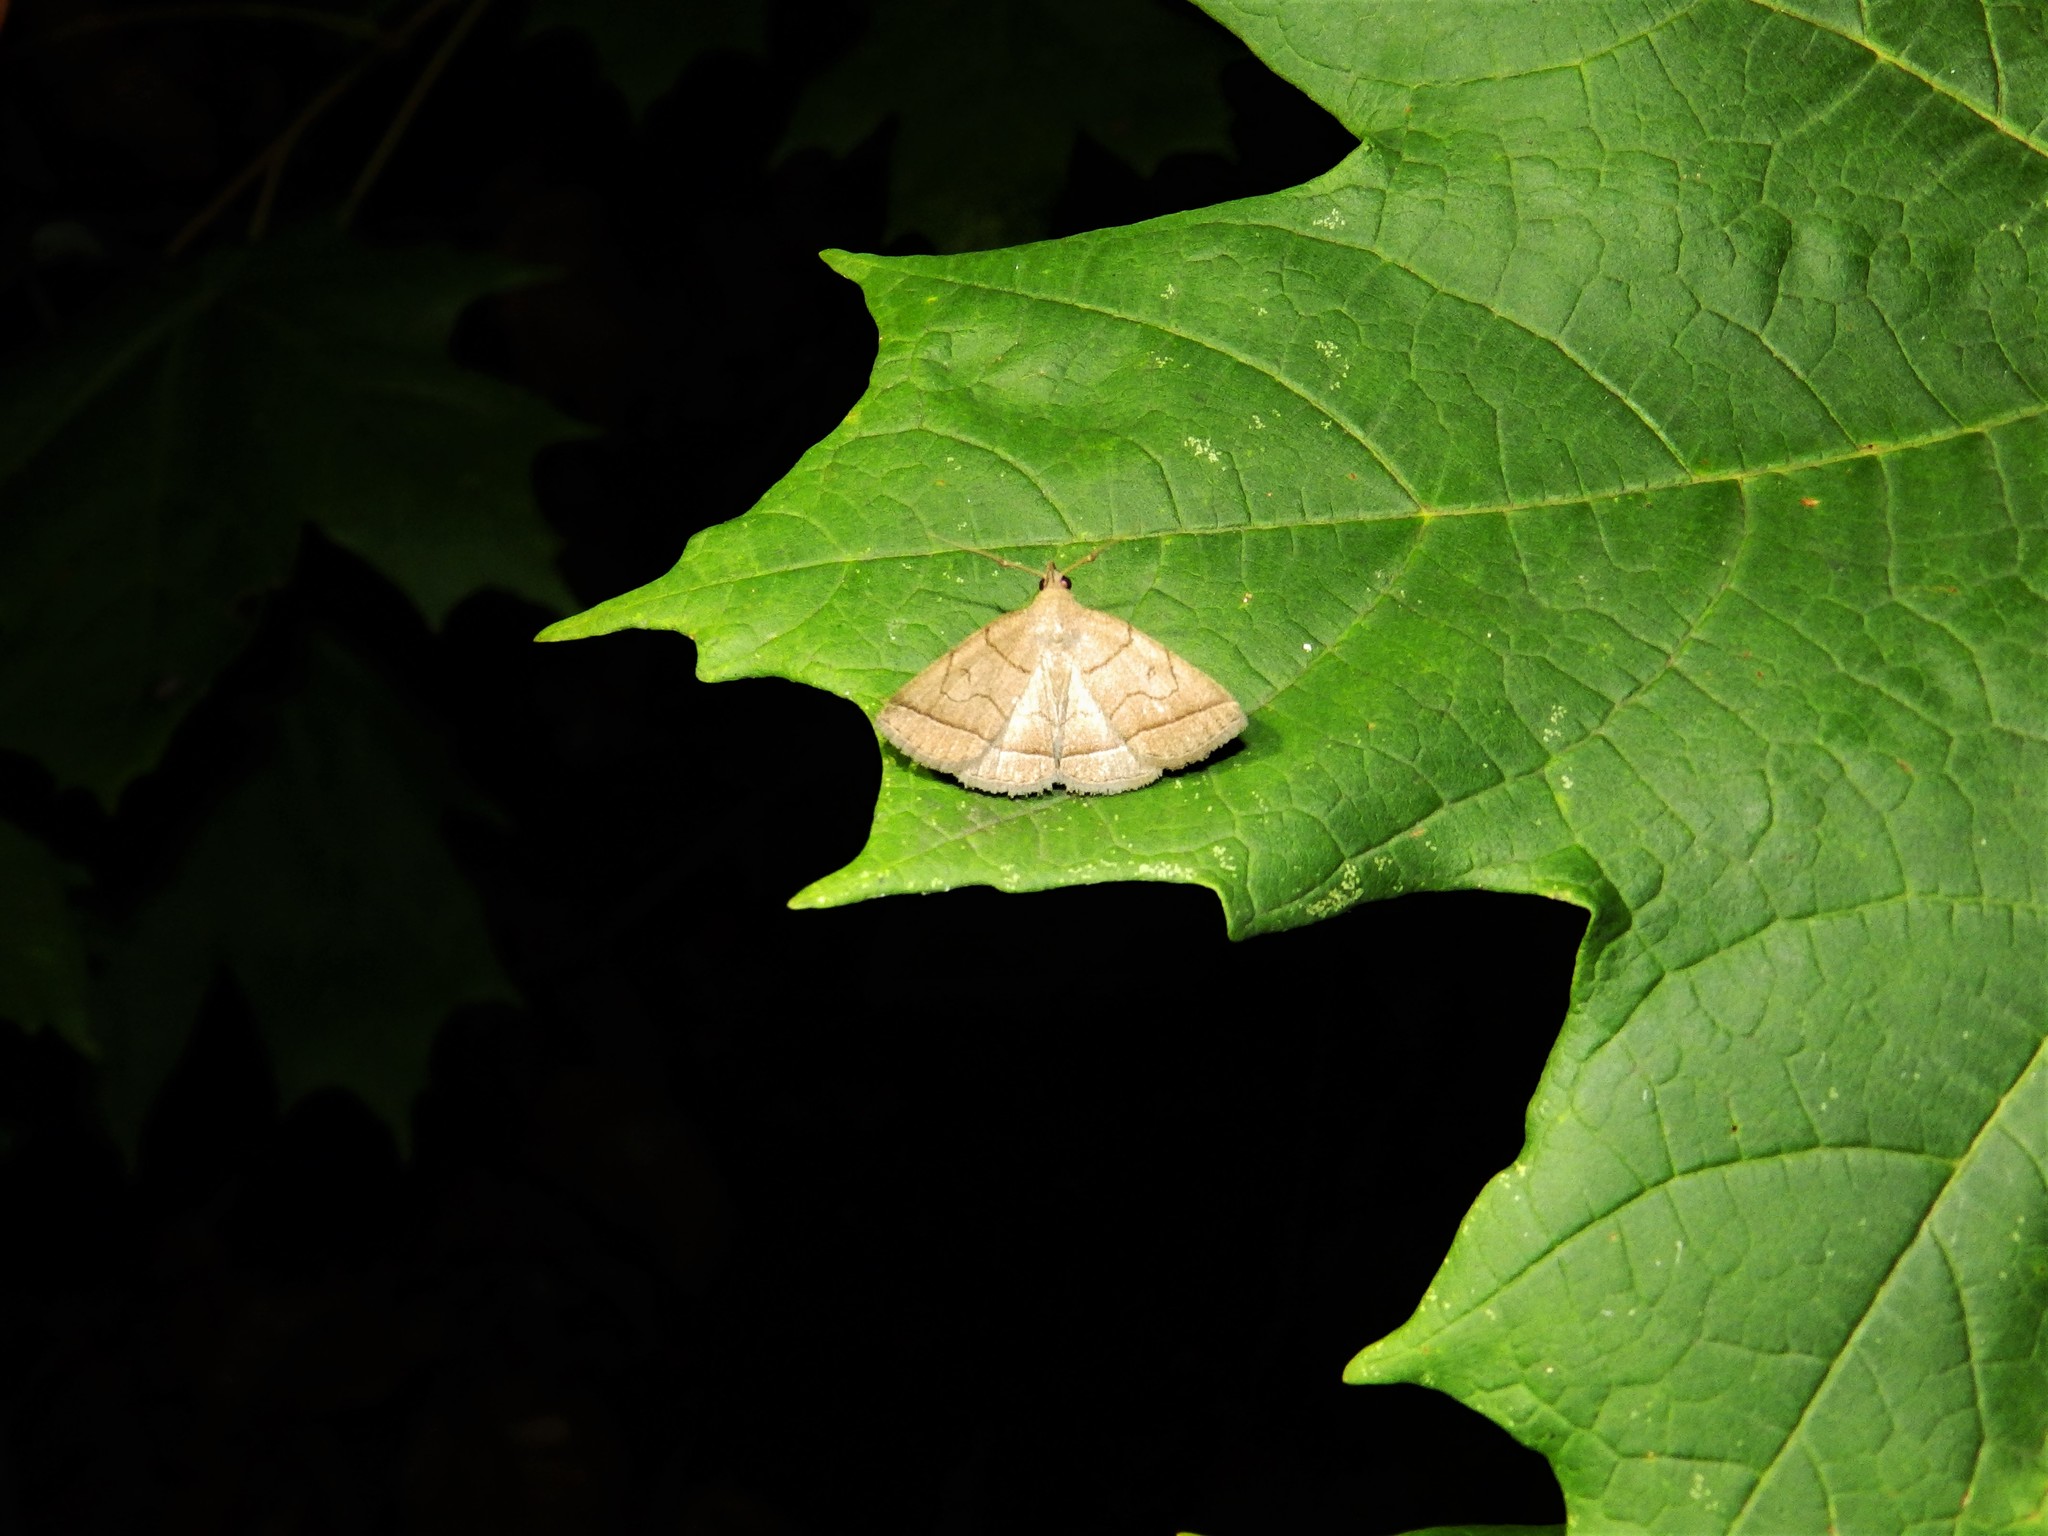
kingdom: Animalia
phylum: Arthropoda
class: Insecta
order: Lepidoptera
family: Erebidae
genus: Zanclognatha
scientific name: Zanclognatha cruralis
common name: Early fan-foot
